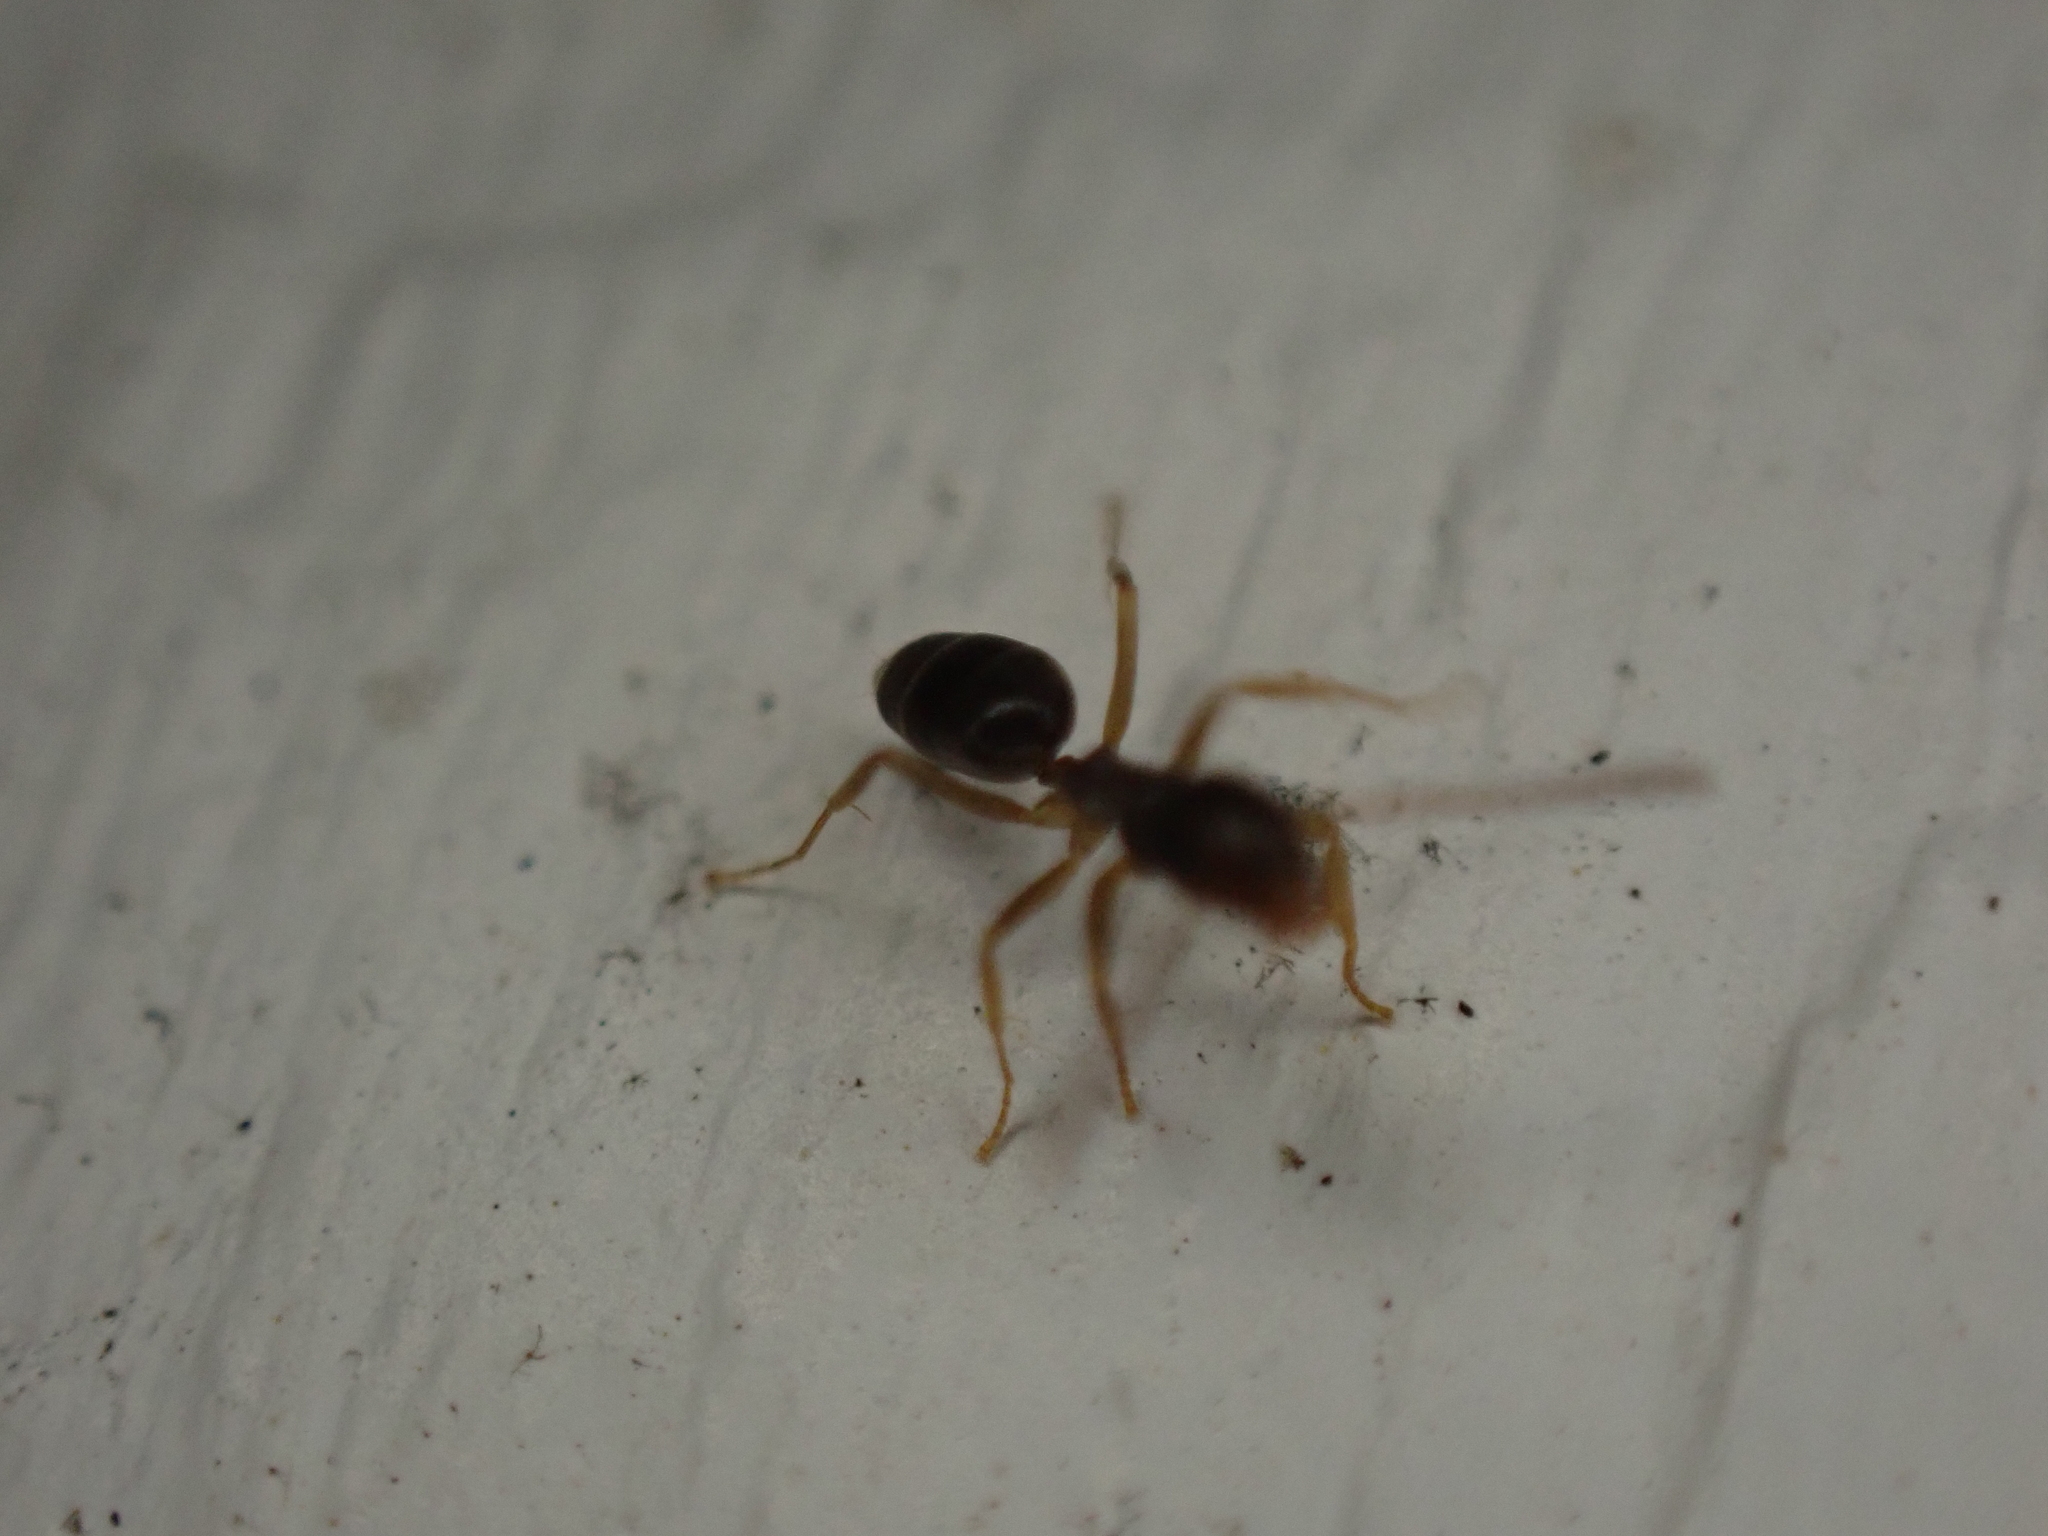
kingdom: Animalia
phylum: Arthropoda
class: Insecta
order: Hymenoptera
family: Formicidae
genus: Tapinoma
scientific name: Tapinoma sessile
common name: Odorous house ant
